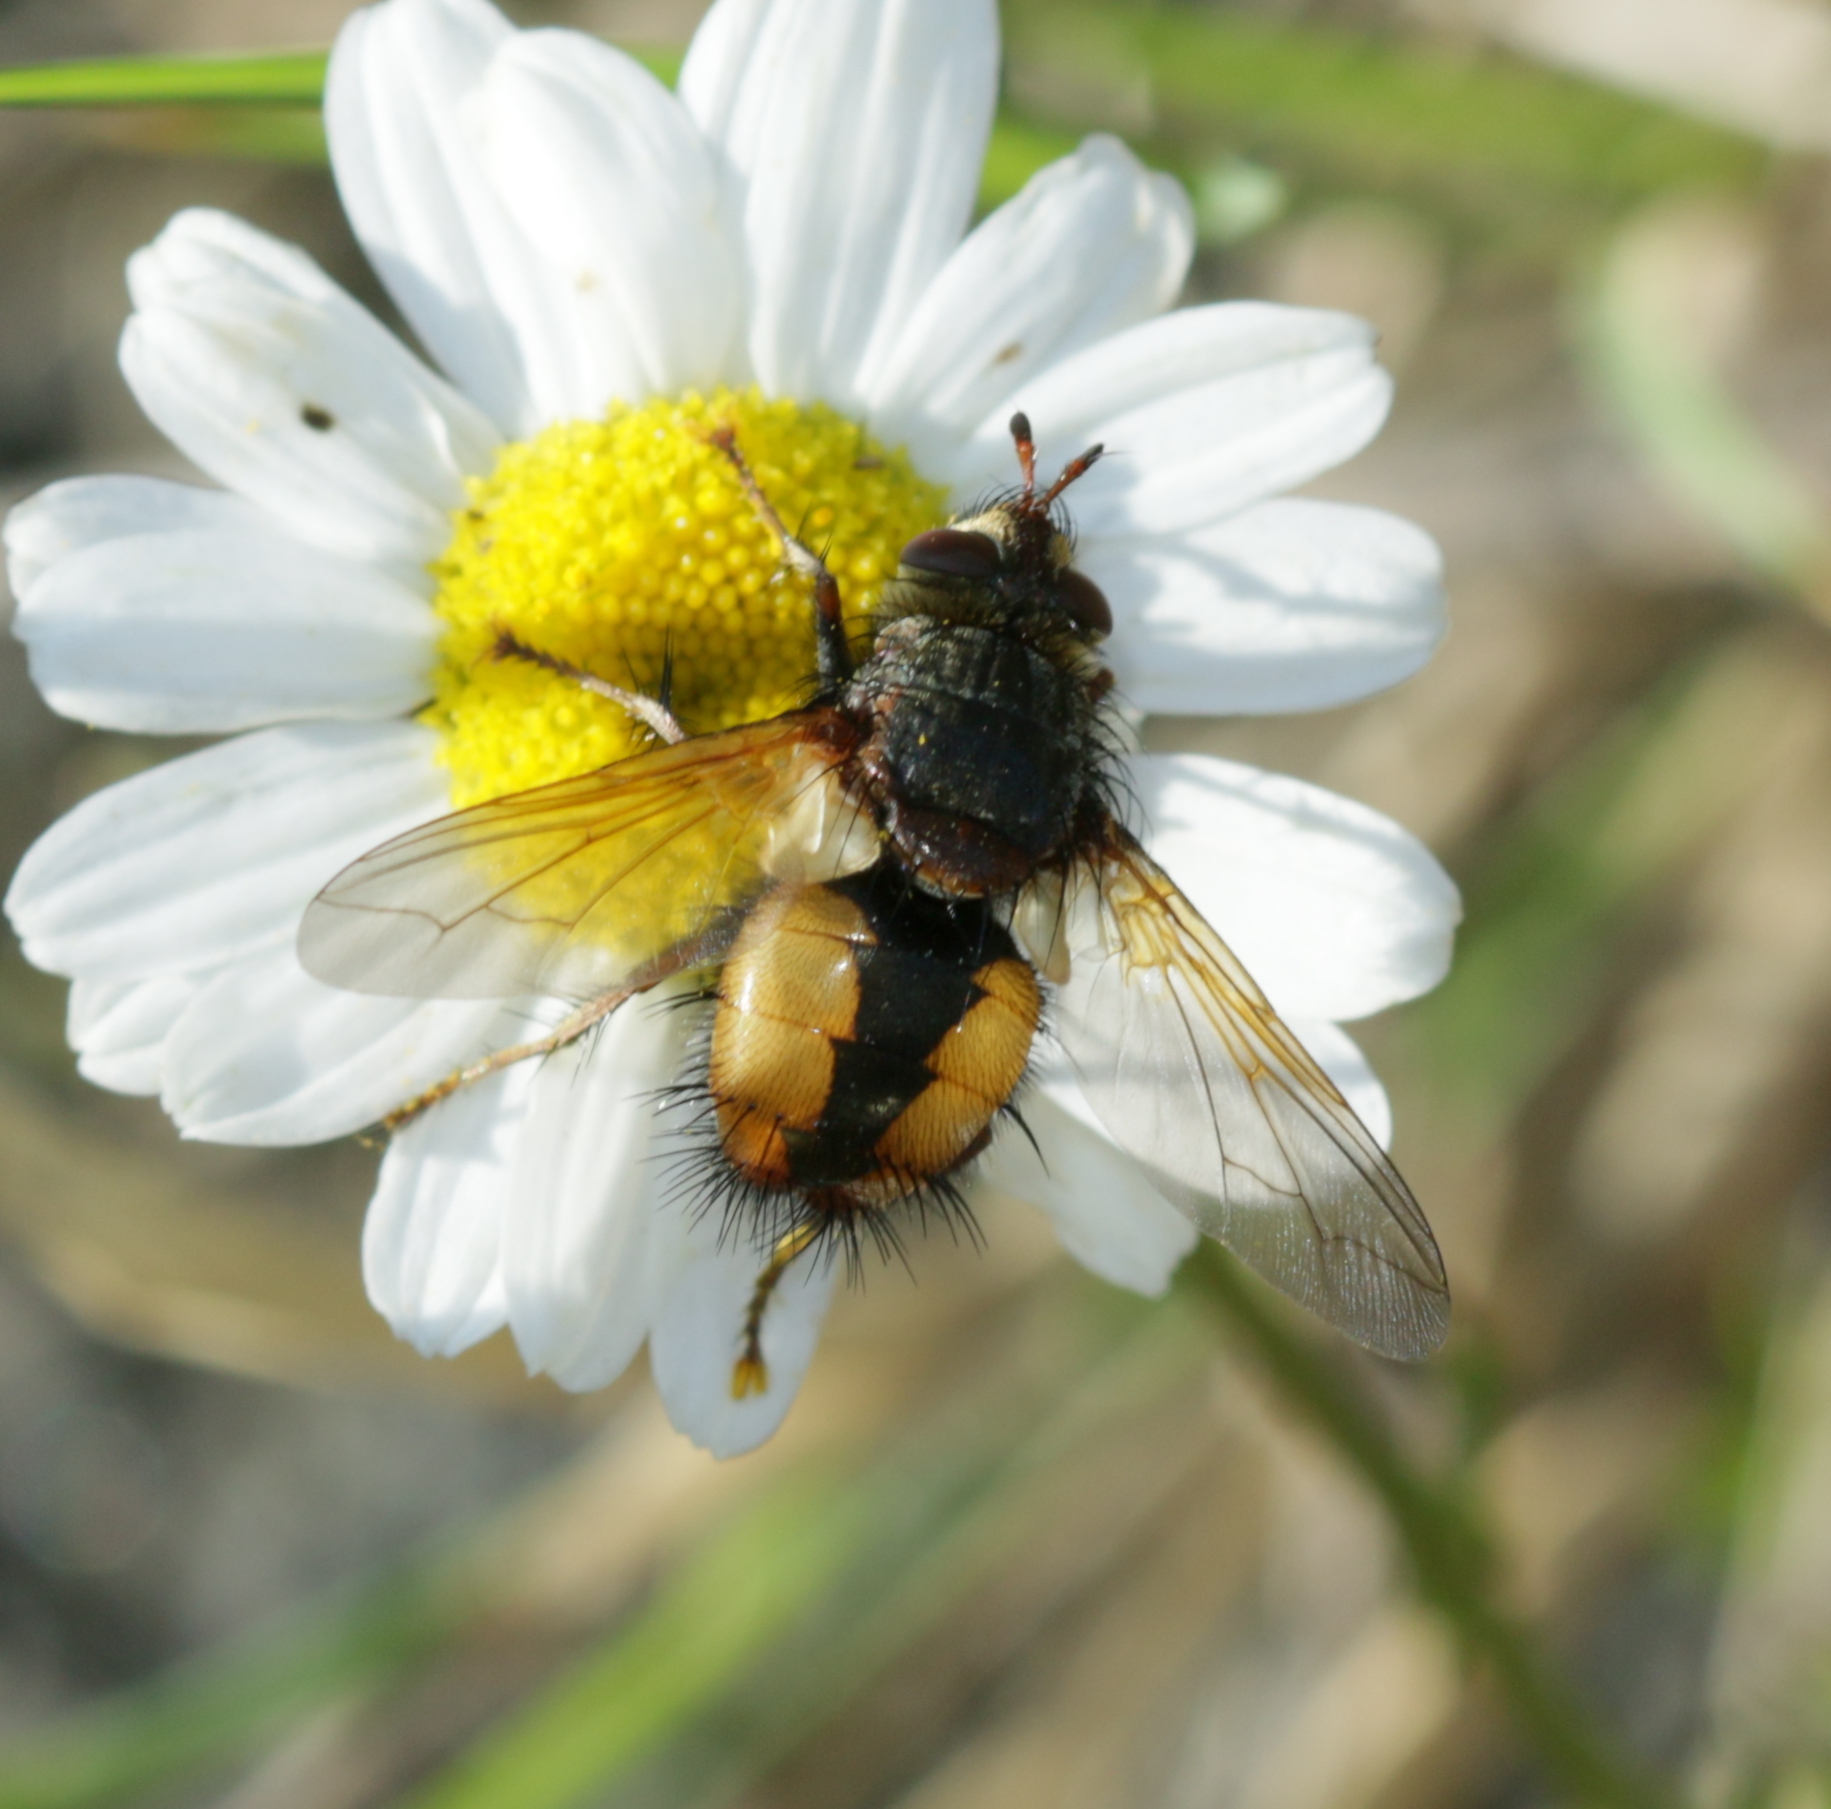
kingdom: Animalia
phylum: Arthropoda
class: Insecta
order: Diptera
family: Tachinidae
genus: Tachina
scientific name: Tachina fera
